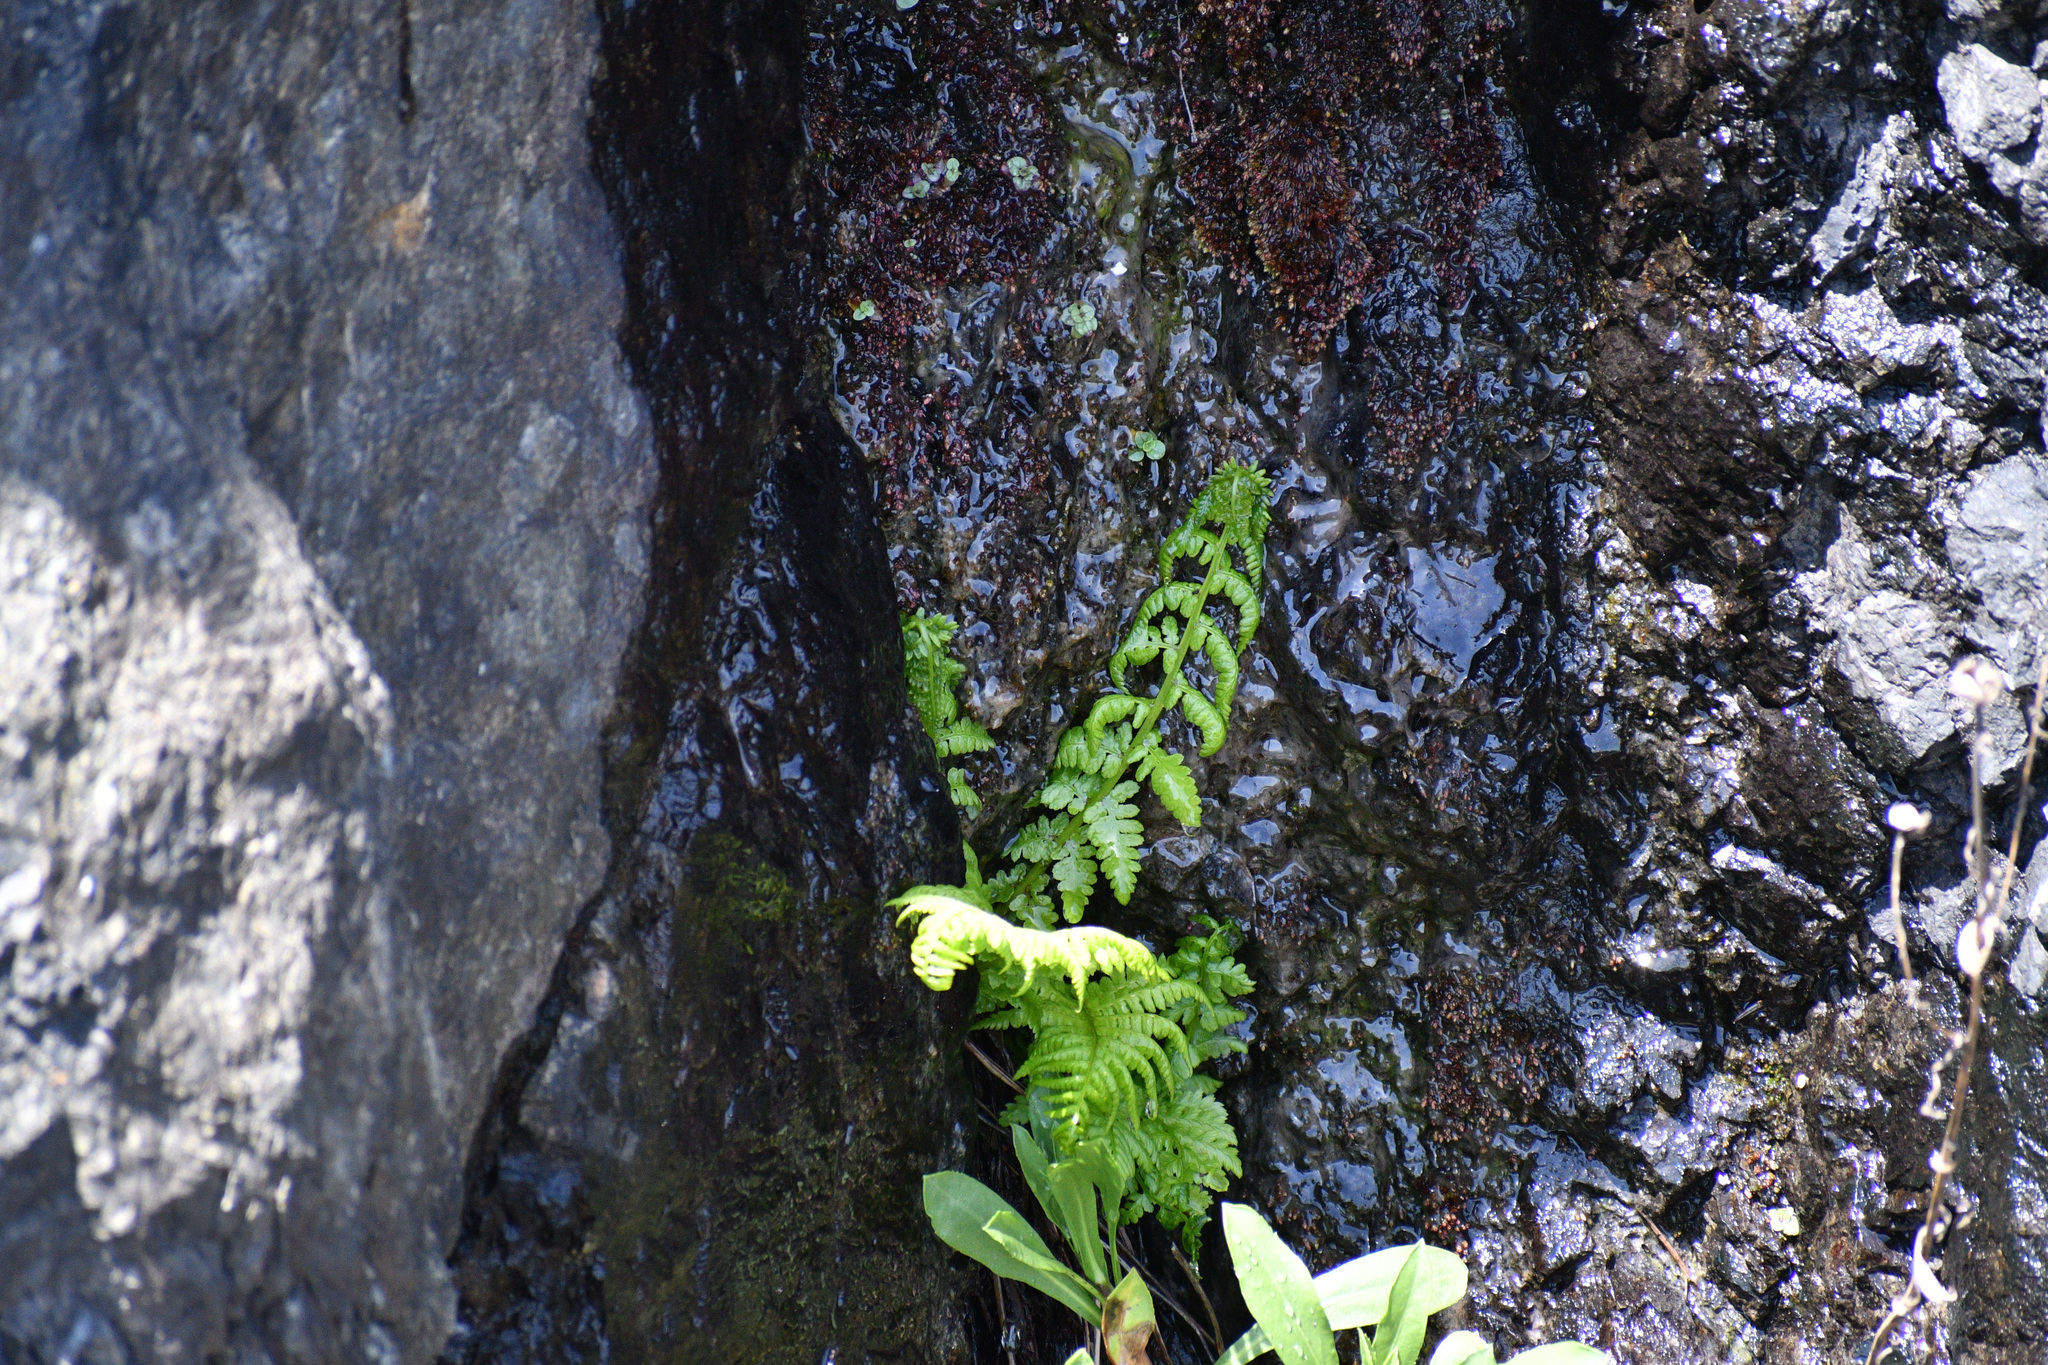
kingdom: Plantae
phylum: Tracheophyta
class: Polypodiopsida
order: Polypodiales
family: Athyriaceae
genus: Athyrium
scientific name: Athyrium filix-femina
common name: Lady fern
